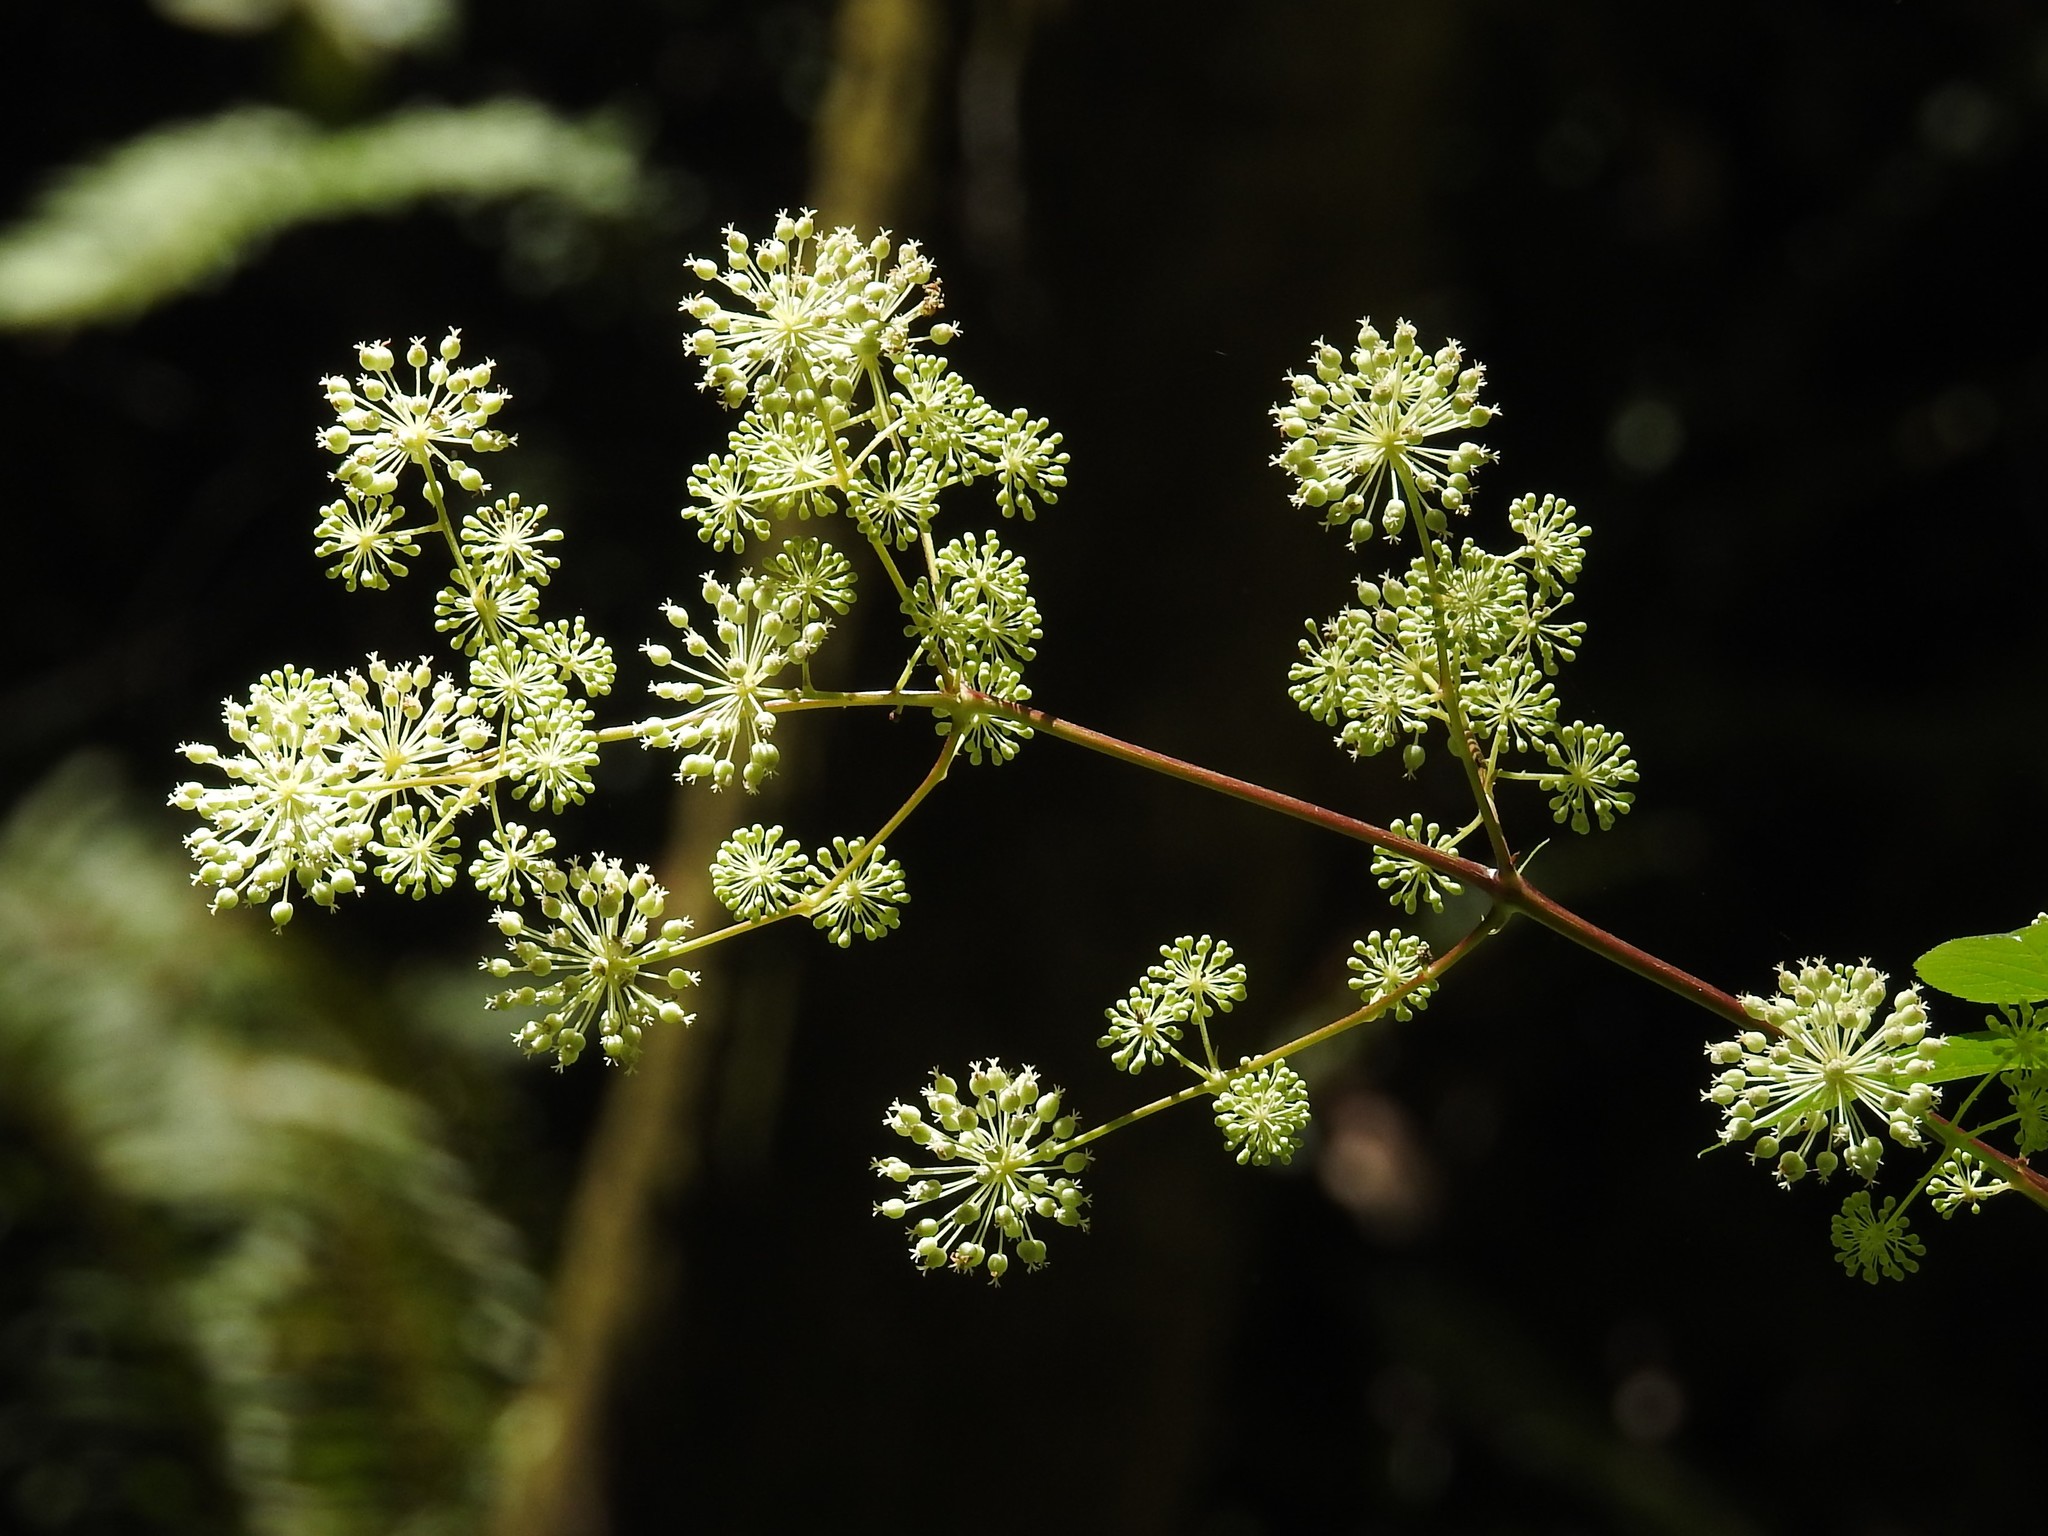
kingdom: Plantae
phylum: Tracheophyta
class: Magnoliopsida
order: Apiales
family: Araliaceae
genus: Aralia
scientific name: Aralia californica
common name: California-ginseng
